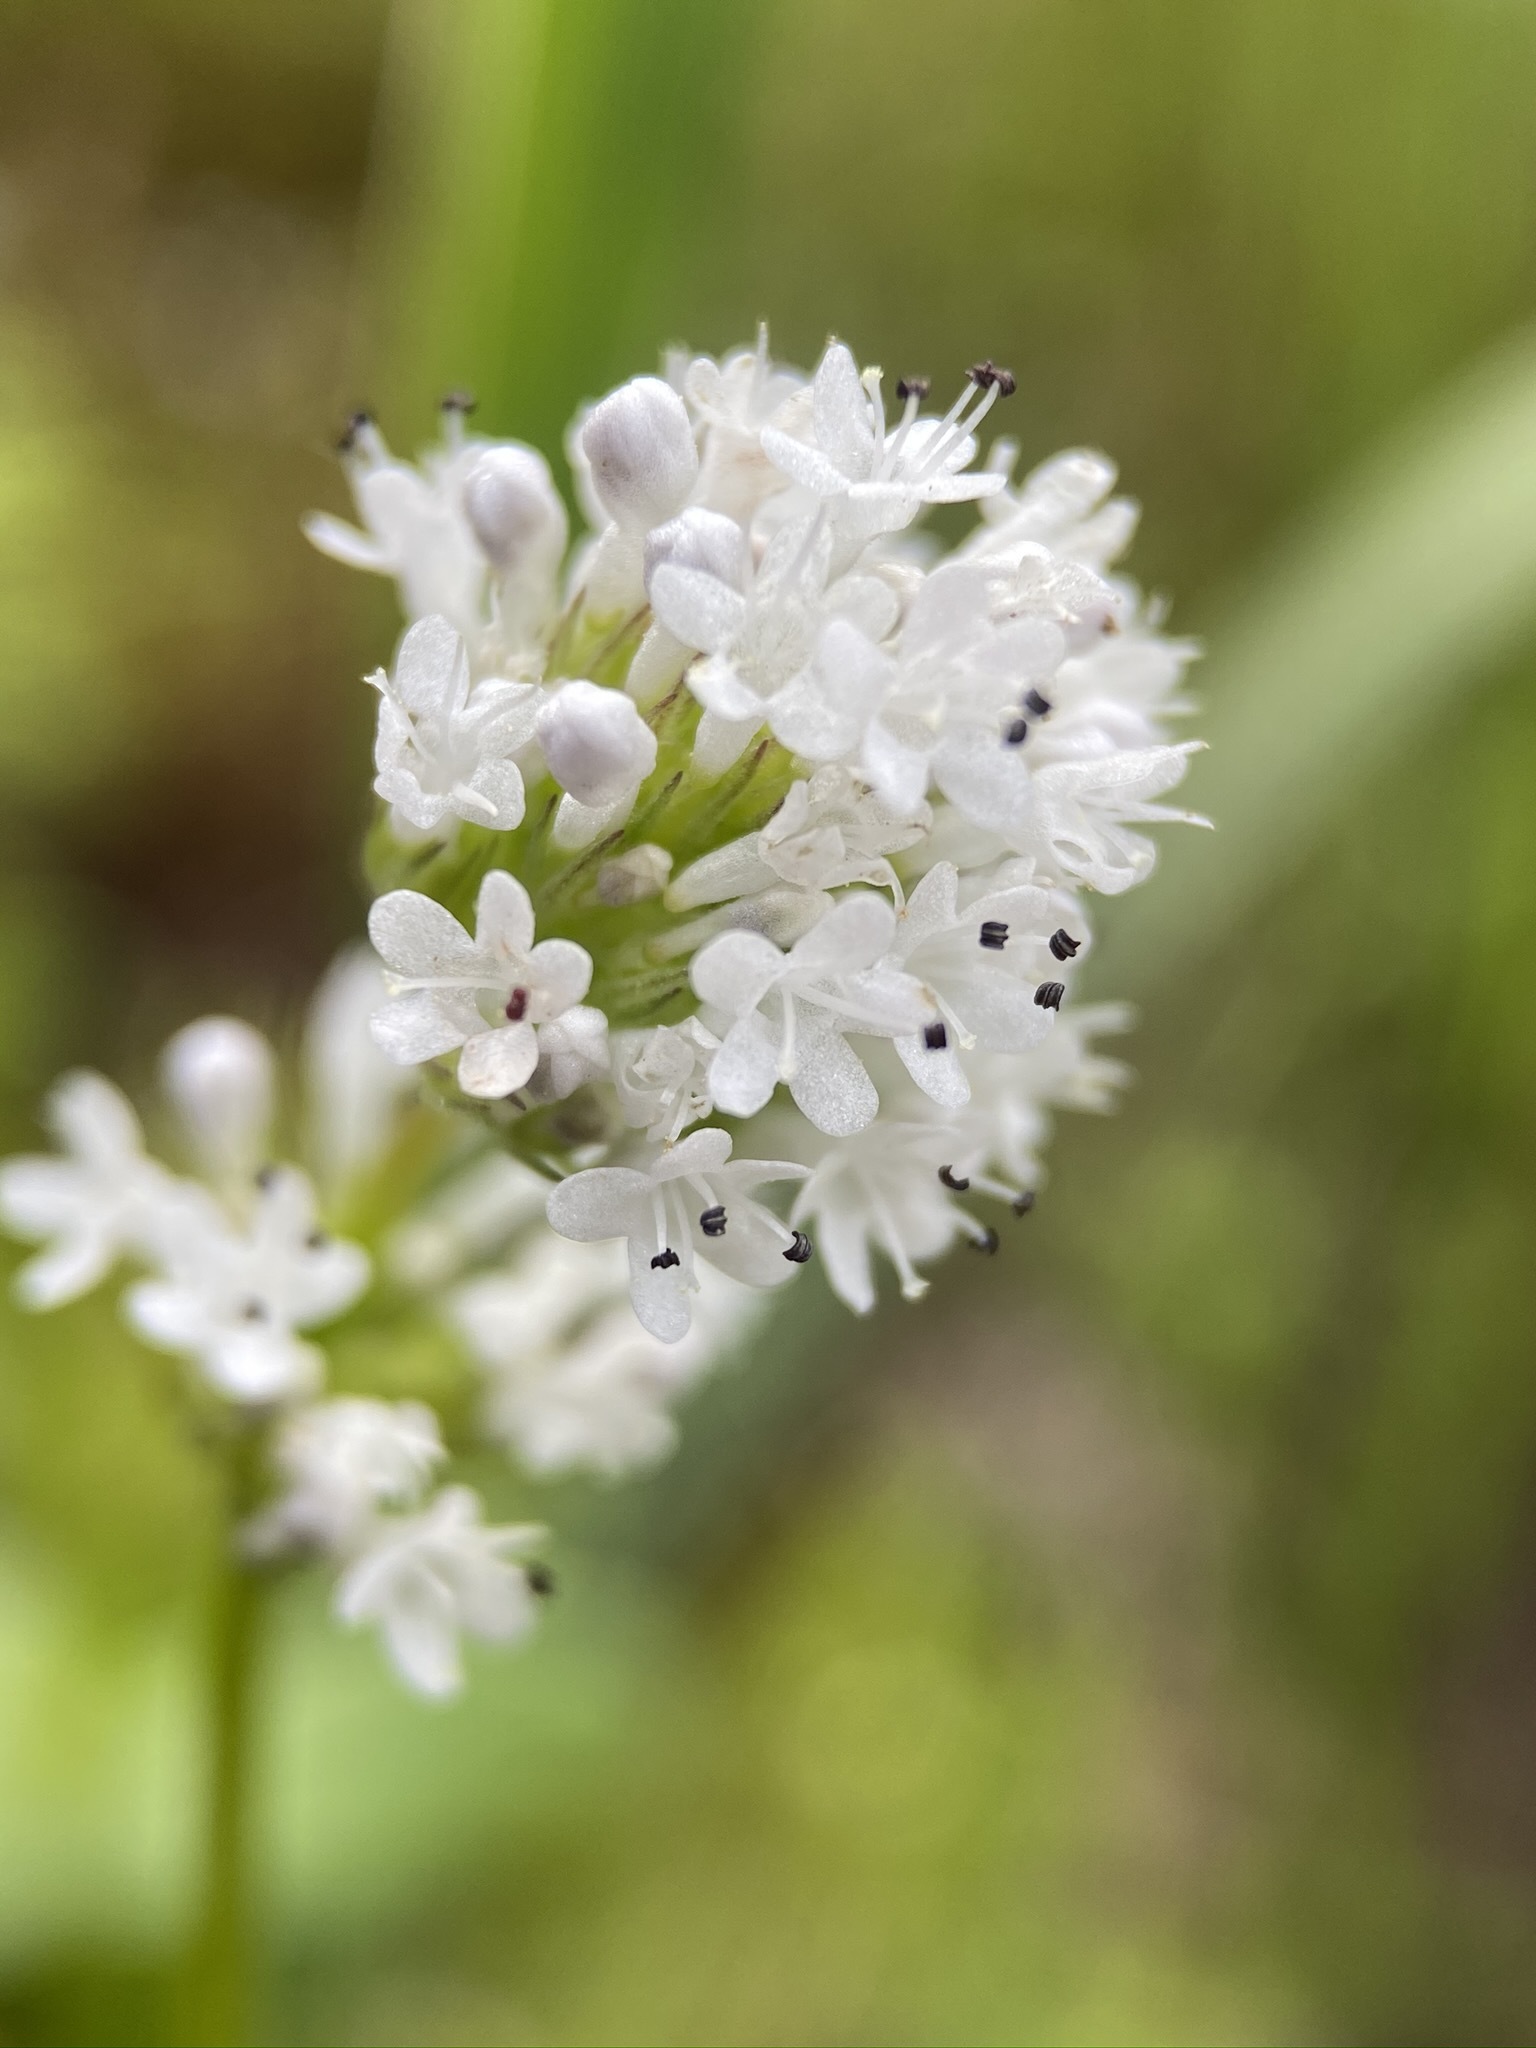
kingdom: Plantae
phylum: Tracheophyta
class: Magnoliopsida
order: Dipsacales
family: Caprifoliaceae
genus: Plectritis
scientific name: Plectritis macroptera
